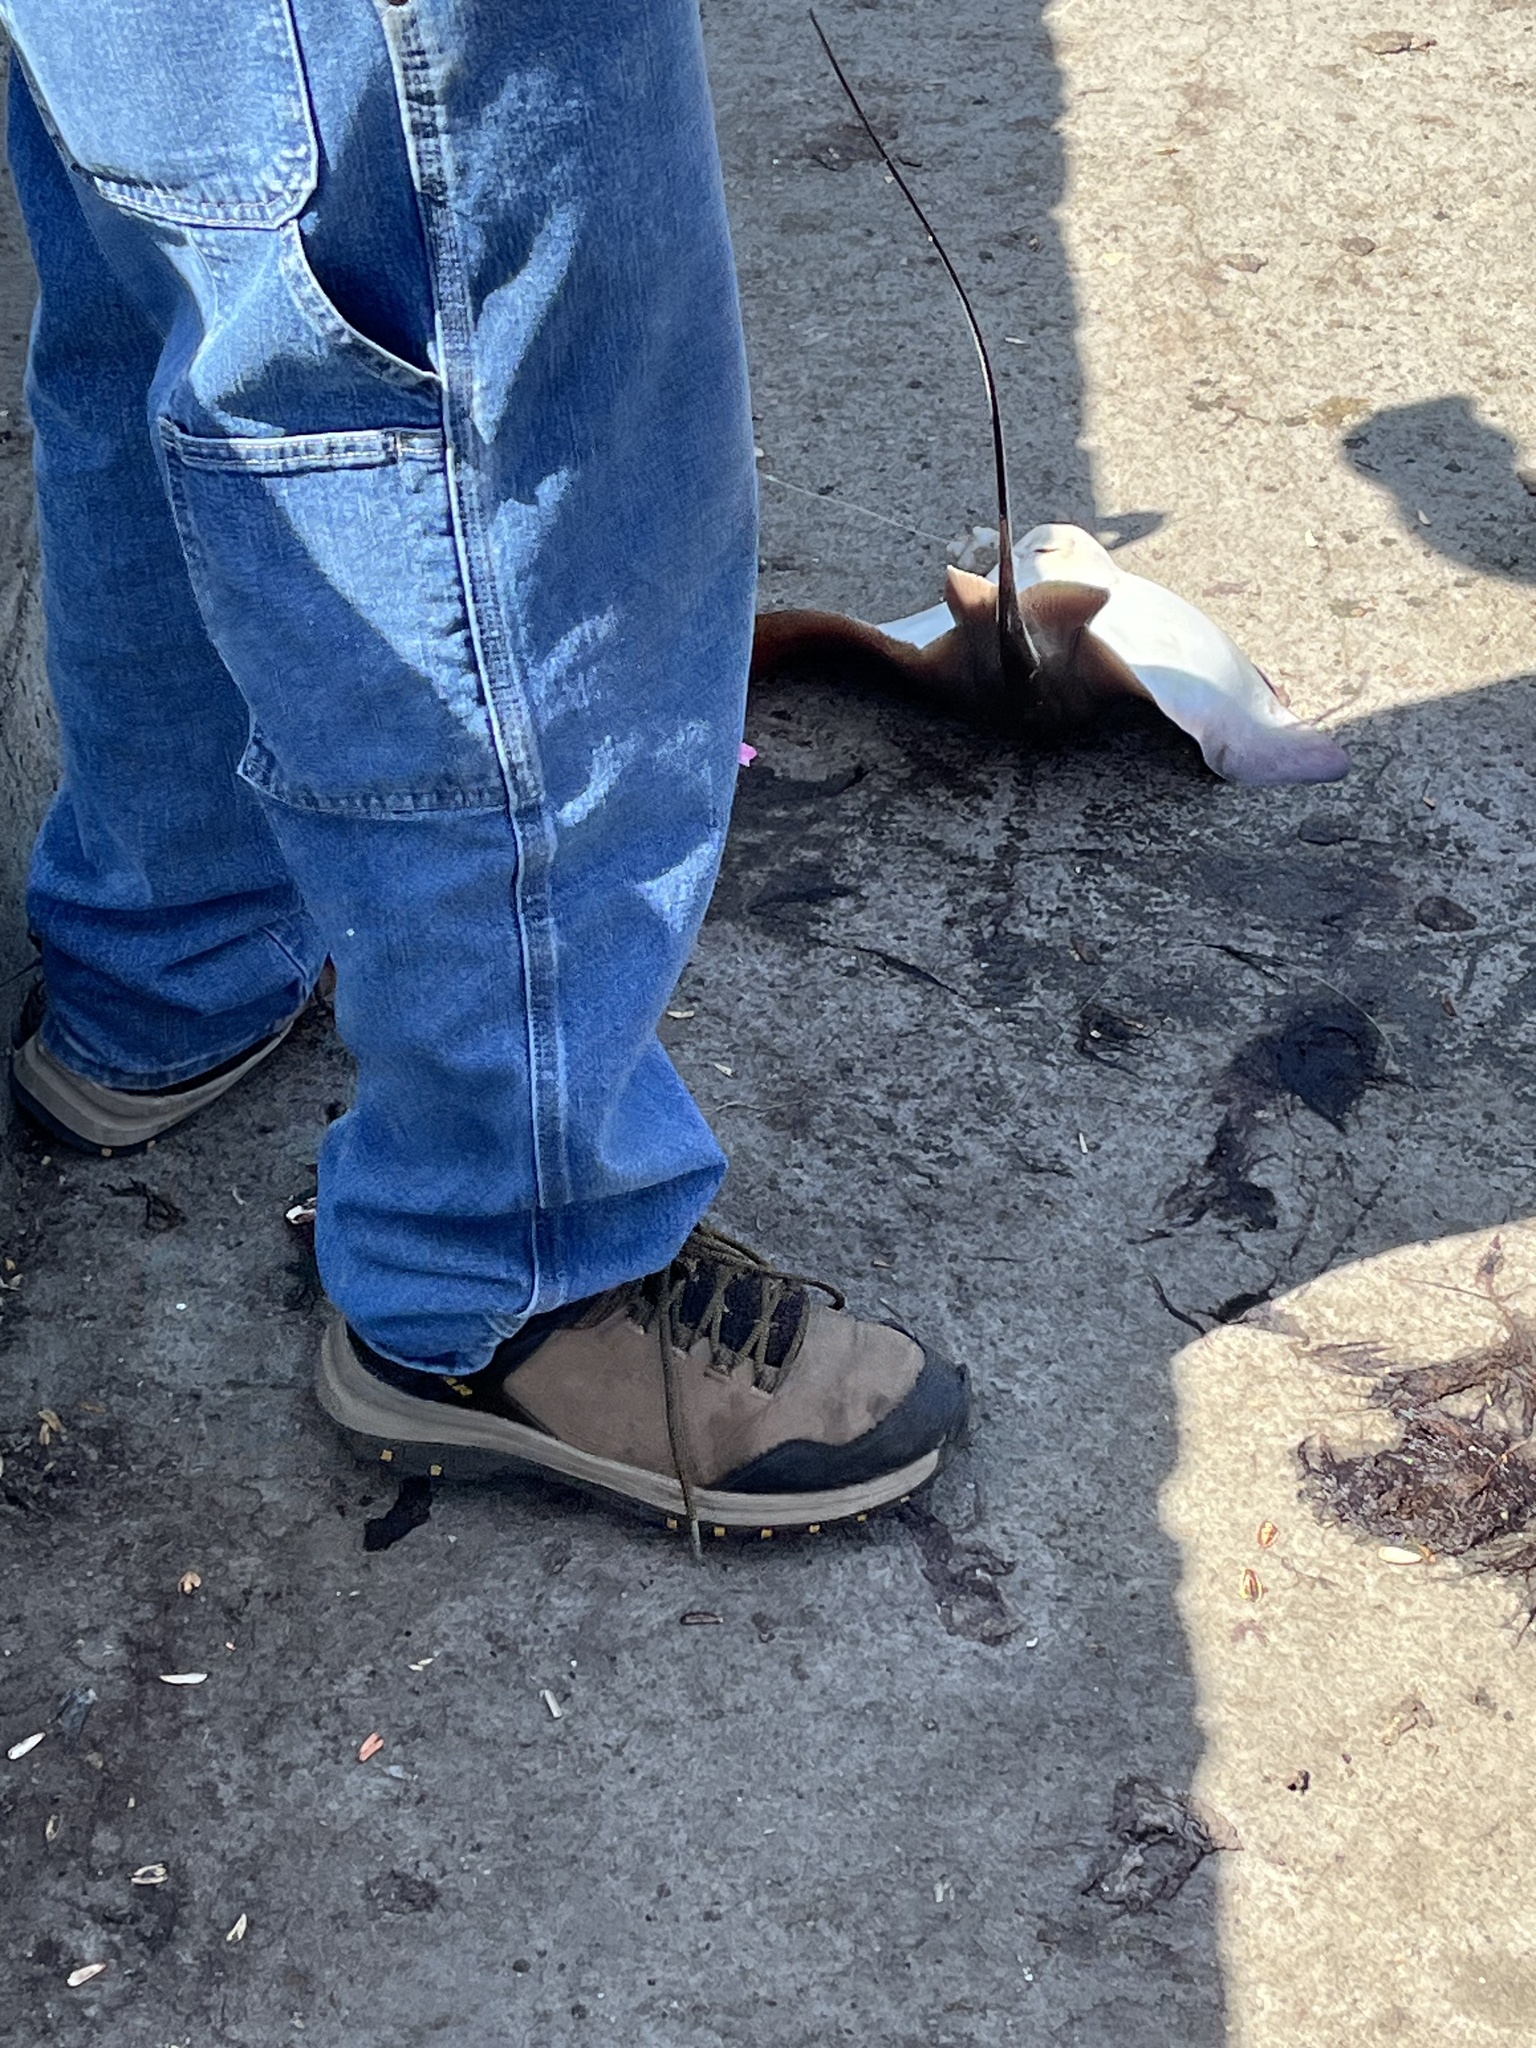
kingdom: Animalia
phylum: Chordata
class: Elasmobranchii
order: Myliobatiformes
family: Myliobatidae
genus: Myliobatis
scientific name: Myliobatis californica
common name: Bat ray
